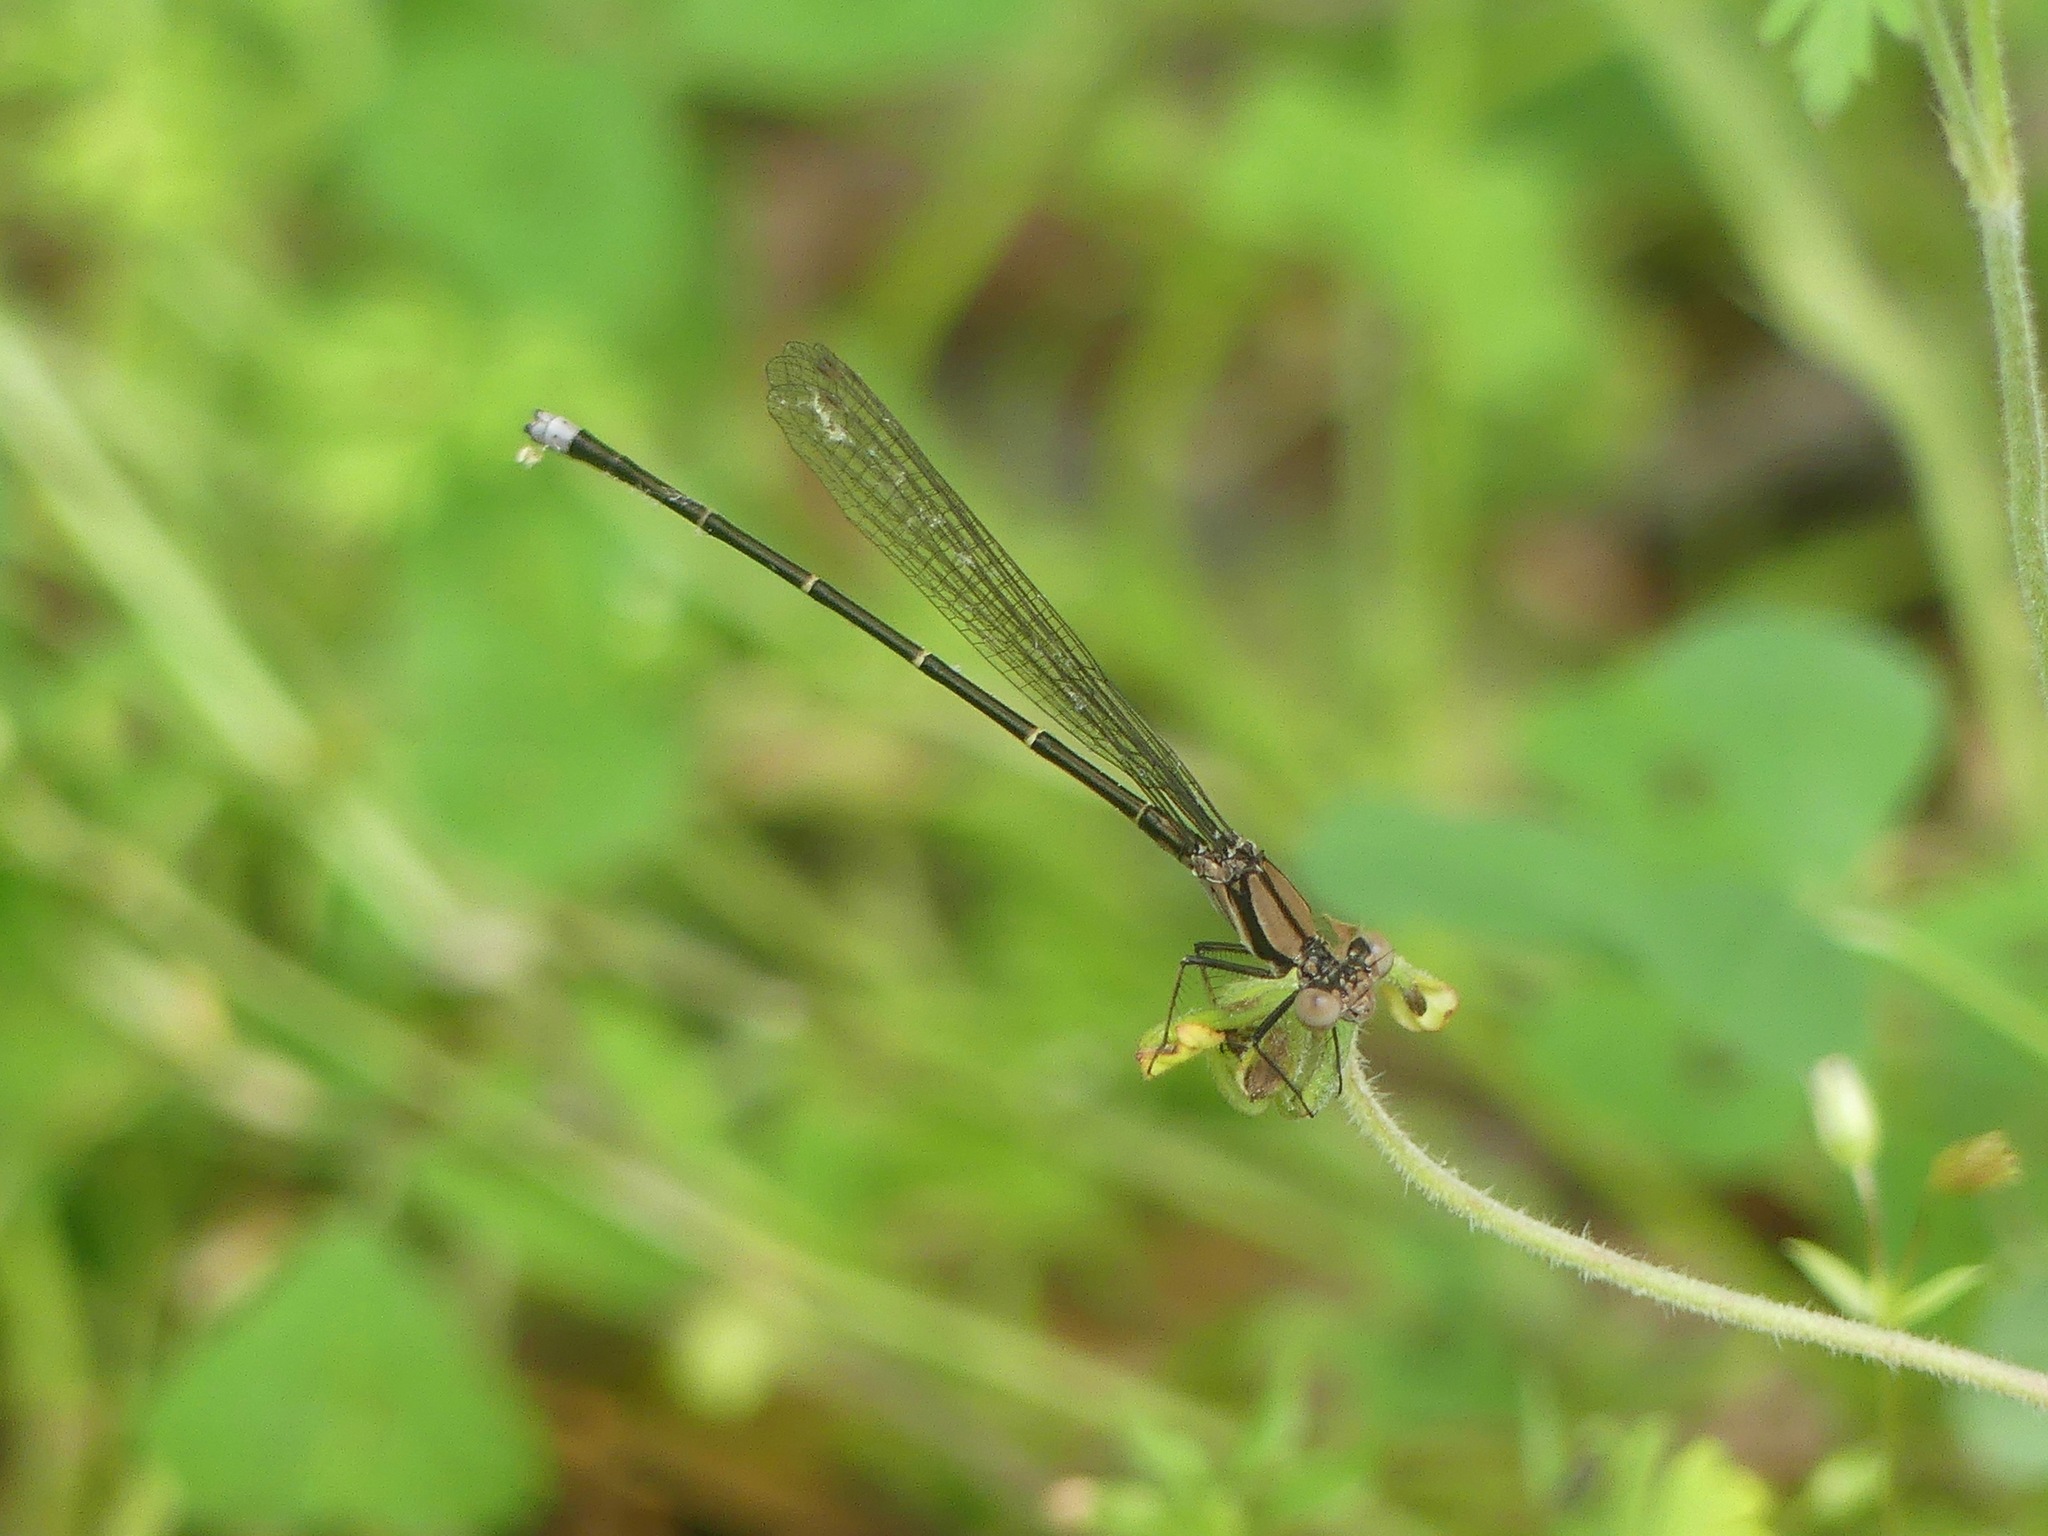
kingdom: Animalia
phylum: Arthropoda
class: Insecta
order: Odonata
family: Coenagrionidae
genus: Argia
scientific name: Argia tibialis
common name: Blue-tipped dancer
